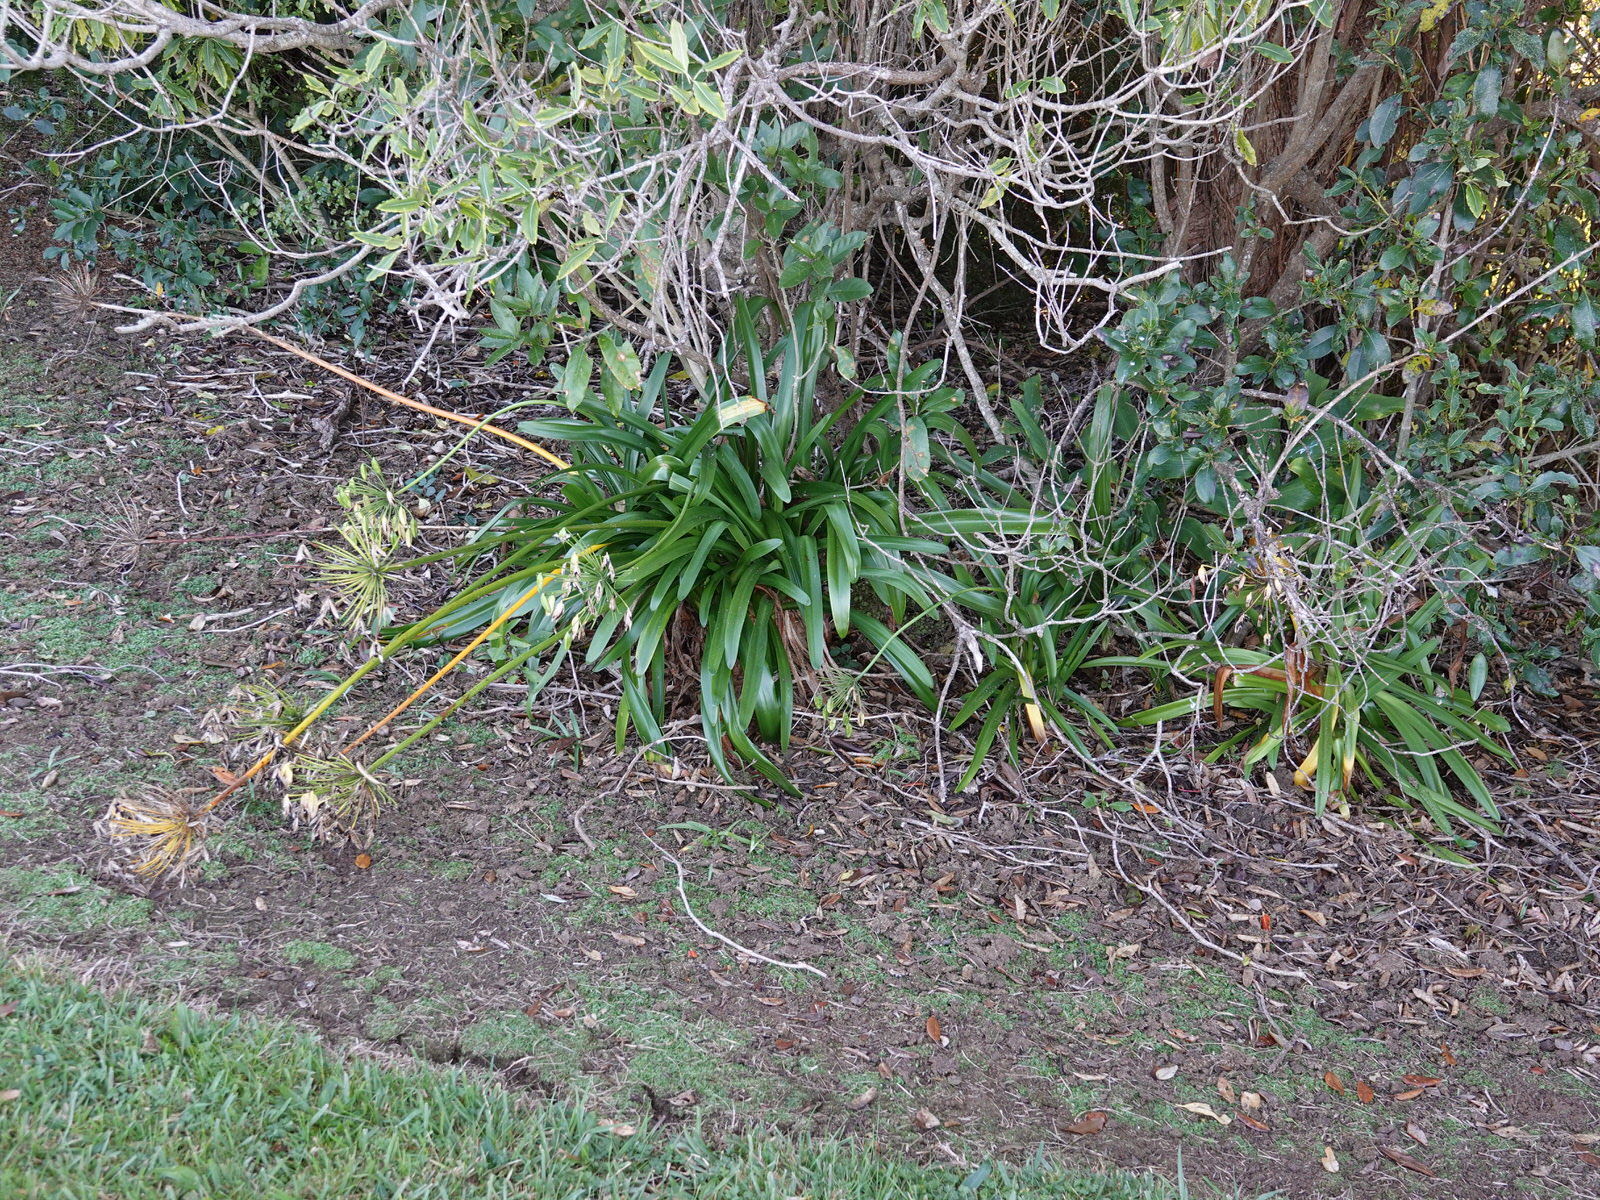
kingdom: Plantae
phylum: Tracheophyta
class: Liliopsida
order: Asparagales
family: Amaryllidaceae
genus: Agapanthus
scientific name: Agapanthus praecox
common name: African-lily
